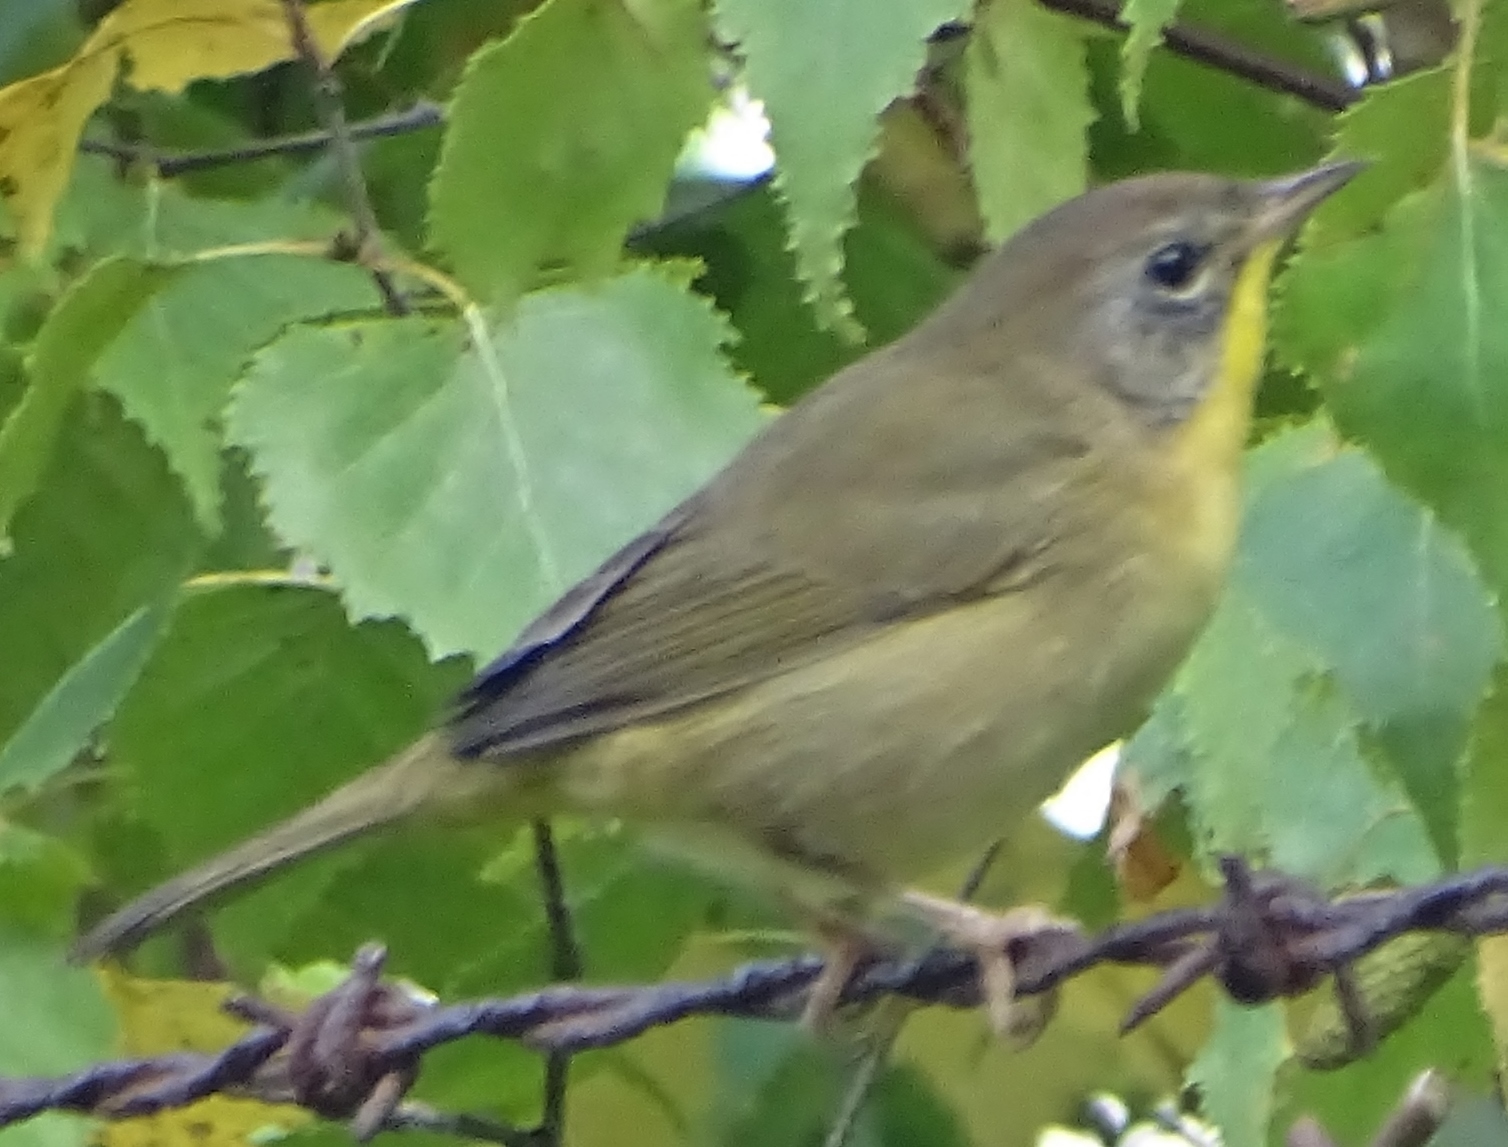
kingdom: Animalia
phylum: Chordata
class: Aves
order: Passeriformes
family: Parulidae
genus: Geothlypis
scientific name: Geothlypis trichas
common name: Common yellowthroat
